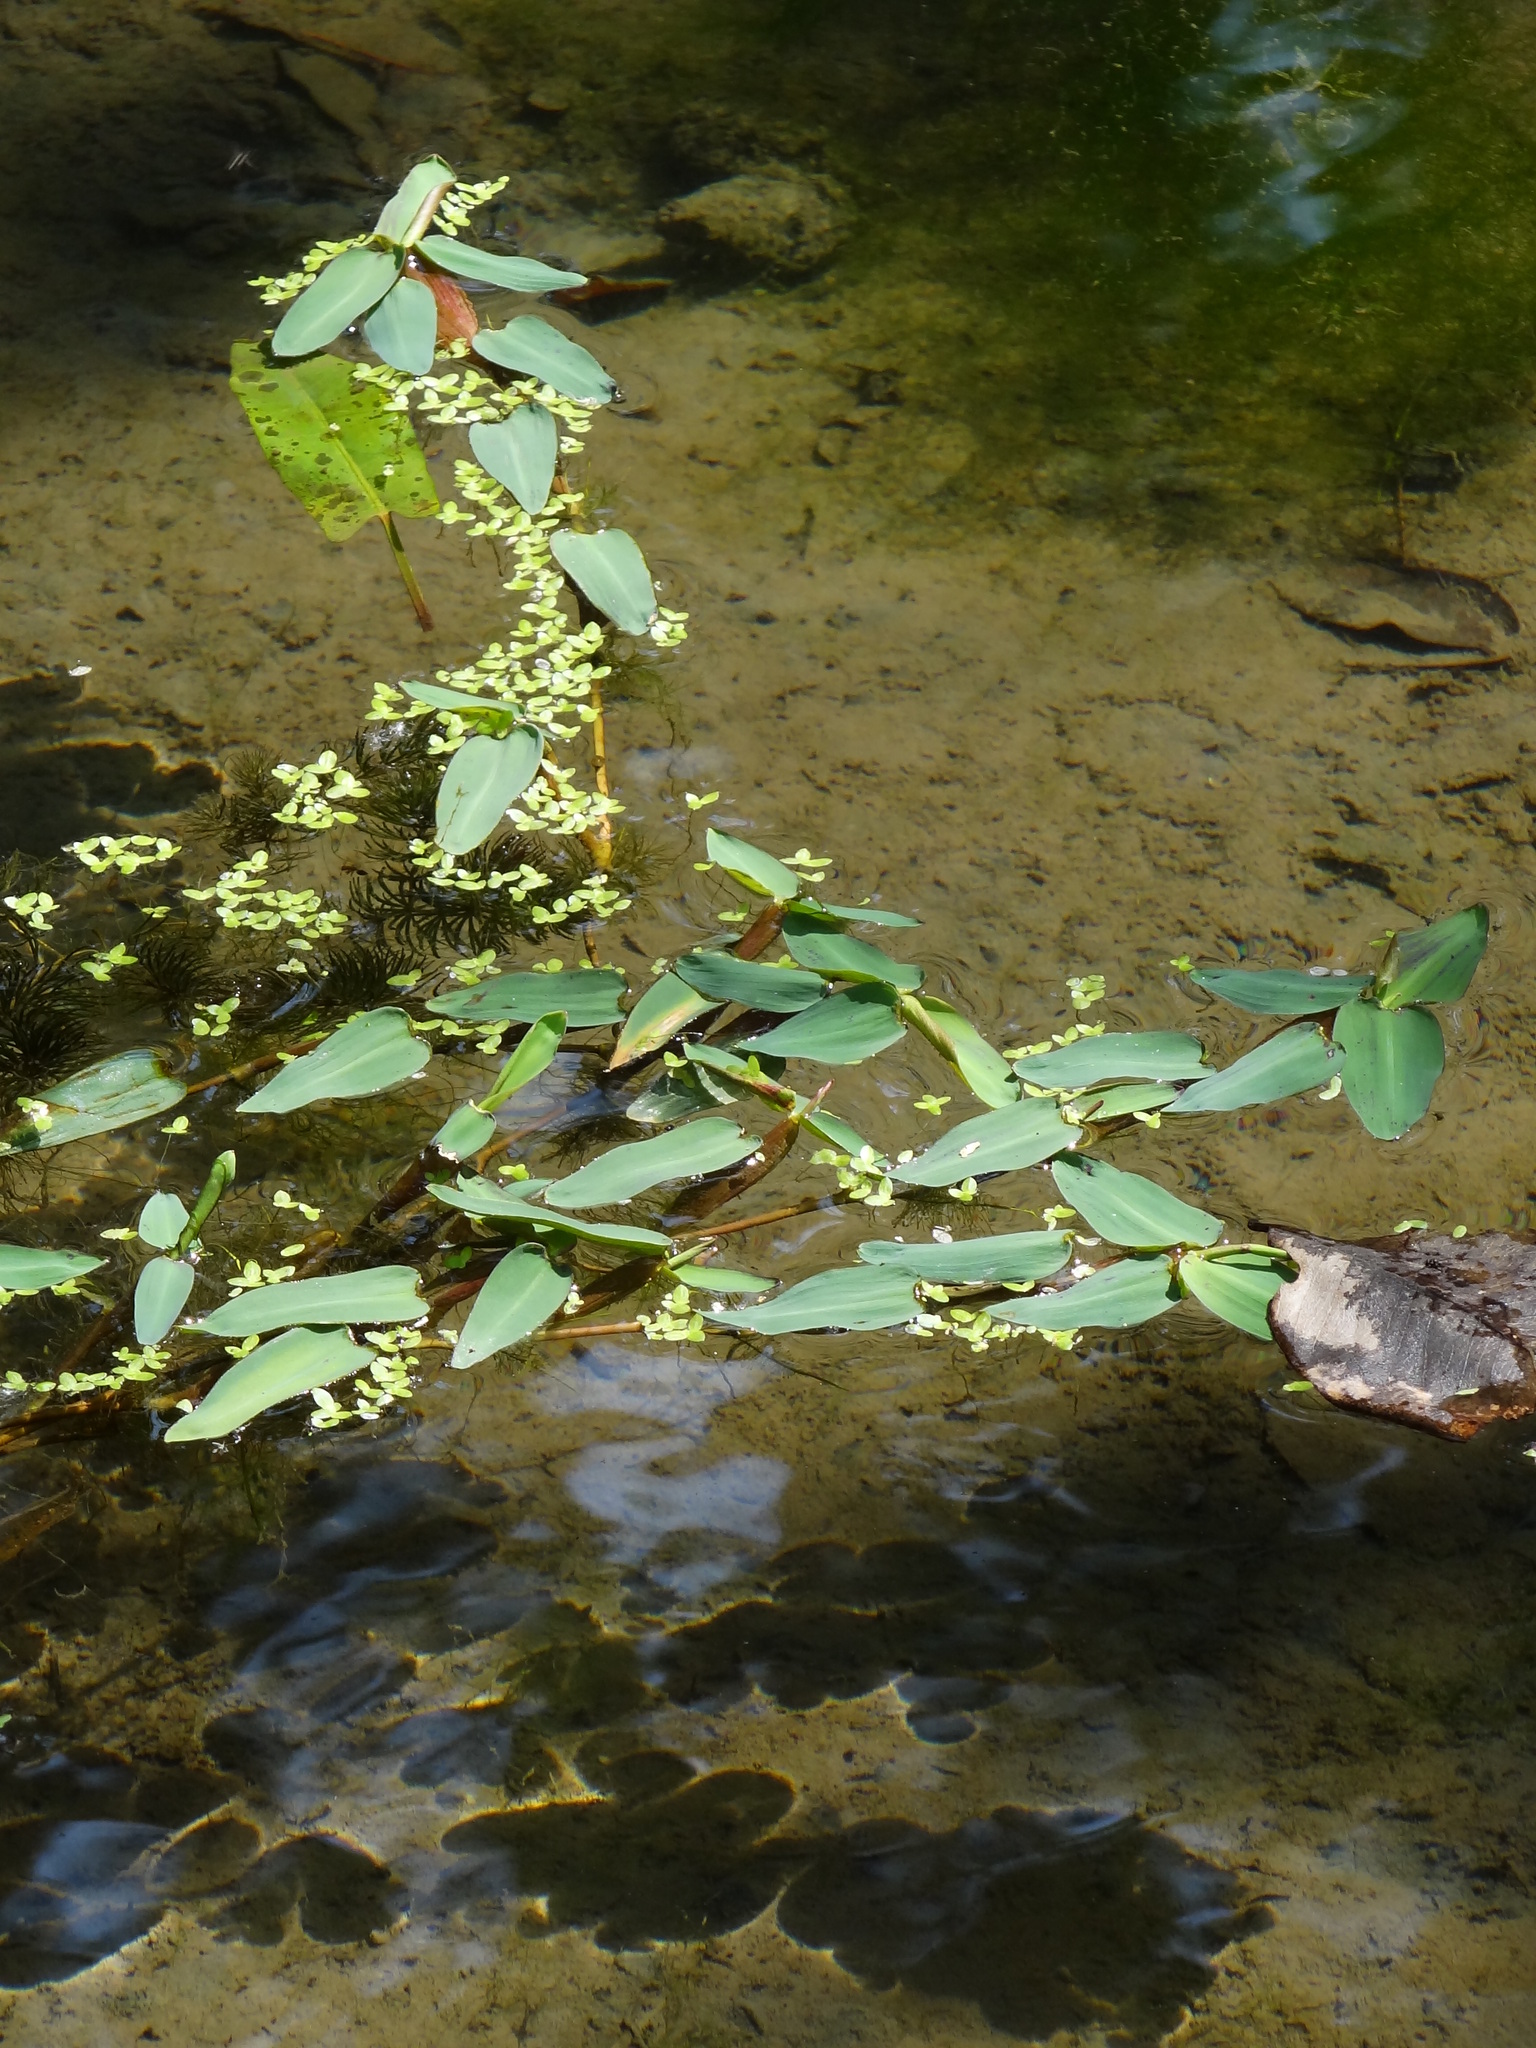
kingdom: Plantae
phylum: Tracheophyta
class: Liliopsida
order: Poales
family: Poaceae
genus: Hygroryza
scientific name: Hygroryza aristata
